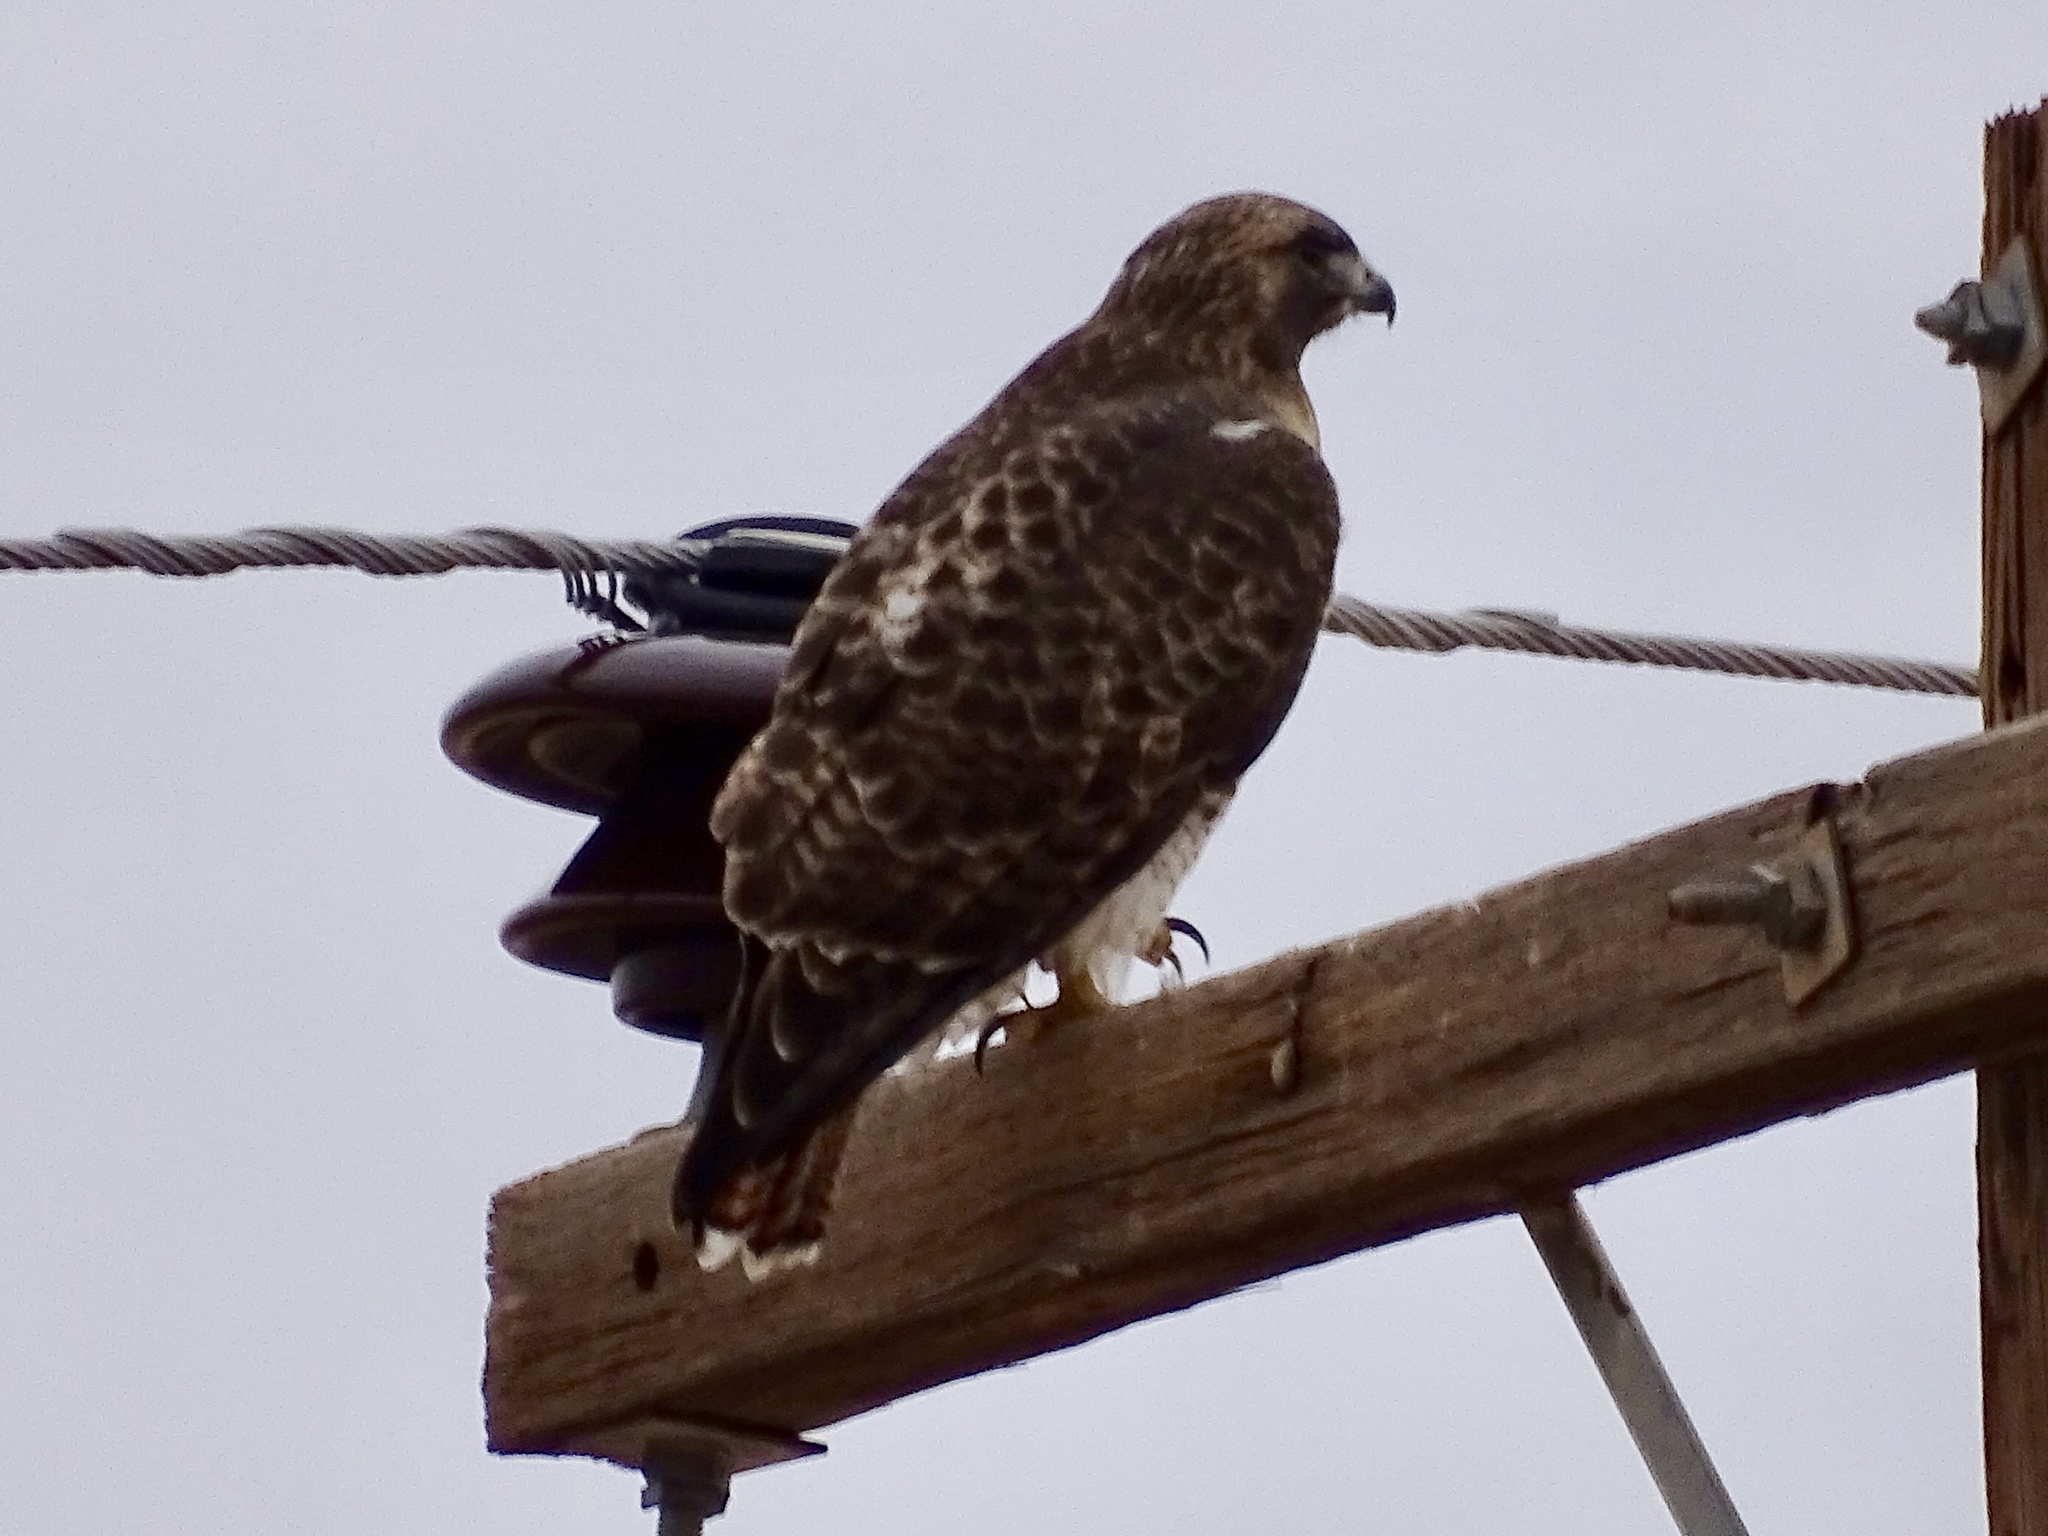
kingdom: Animalia
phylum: Chordata
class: Aves
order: Accipitriformes
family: Accipitridae
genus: Buteo
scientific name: Buteo jamaicensis
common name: Red-tailed hawk
